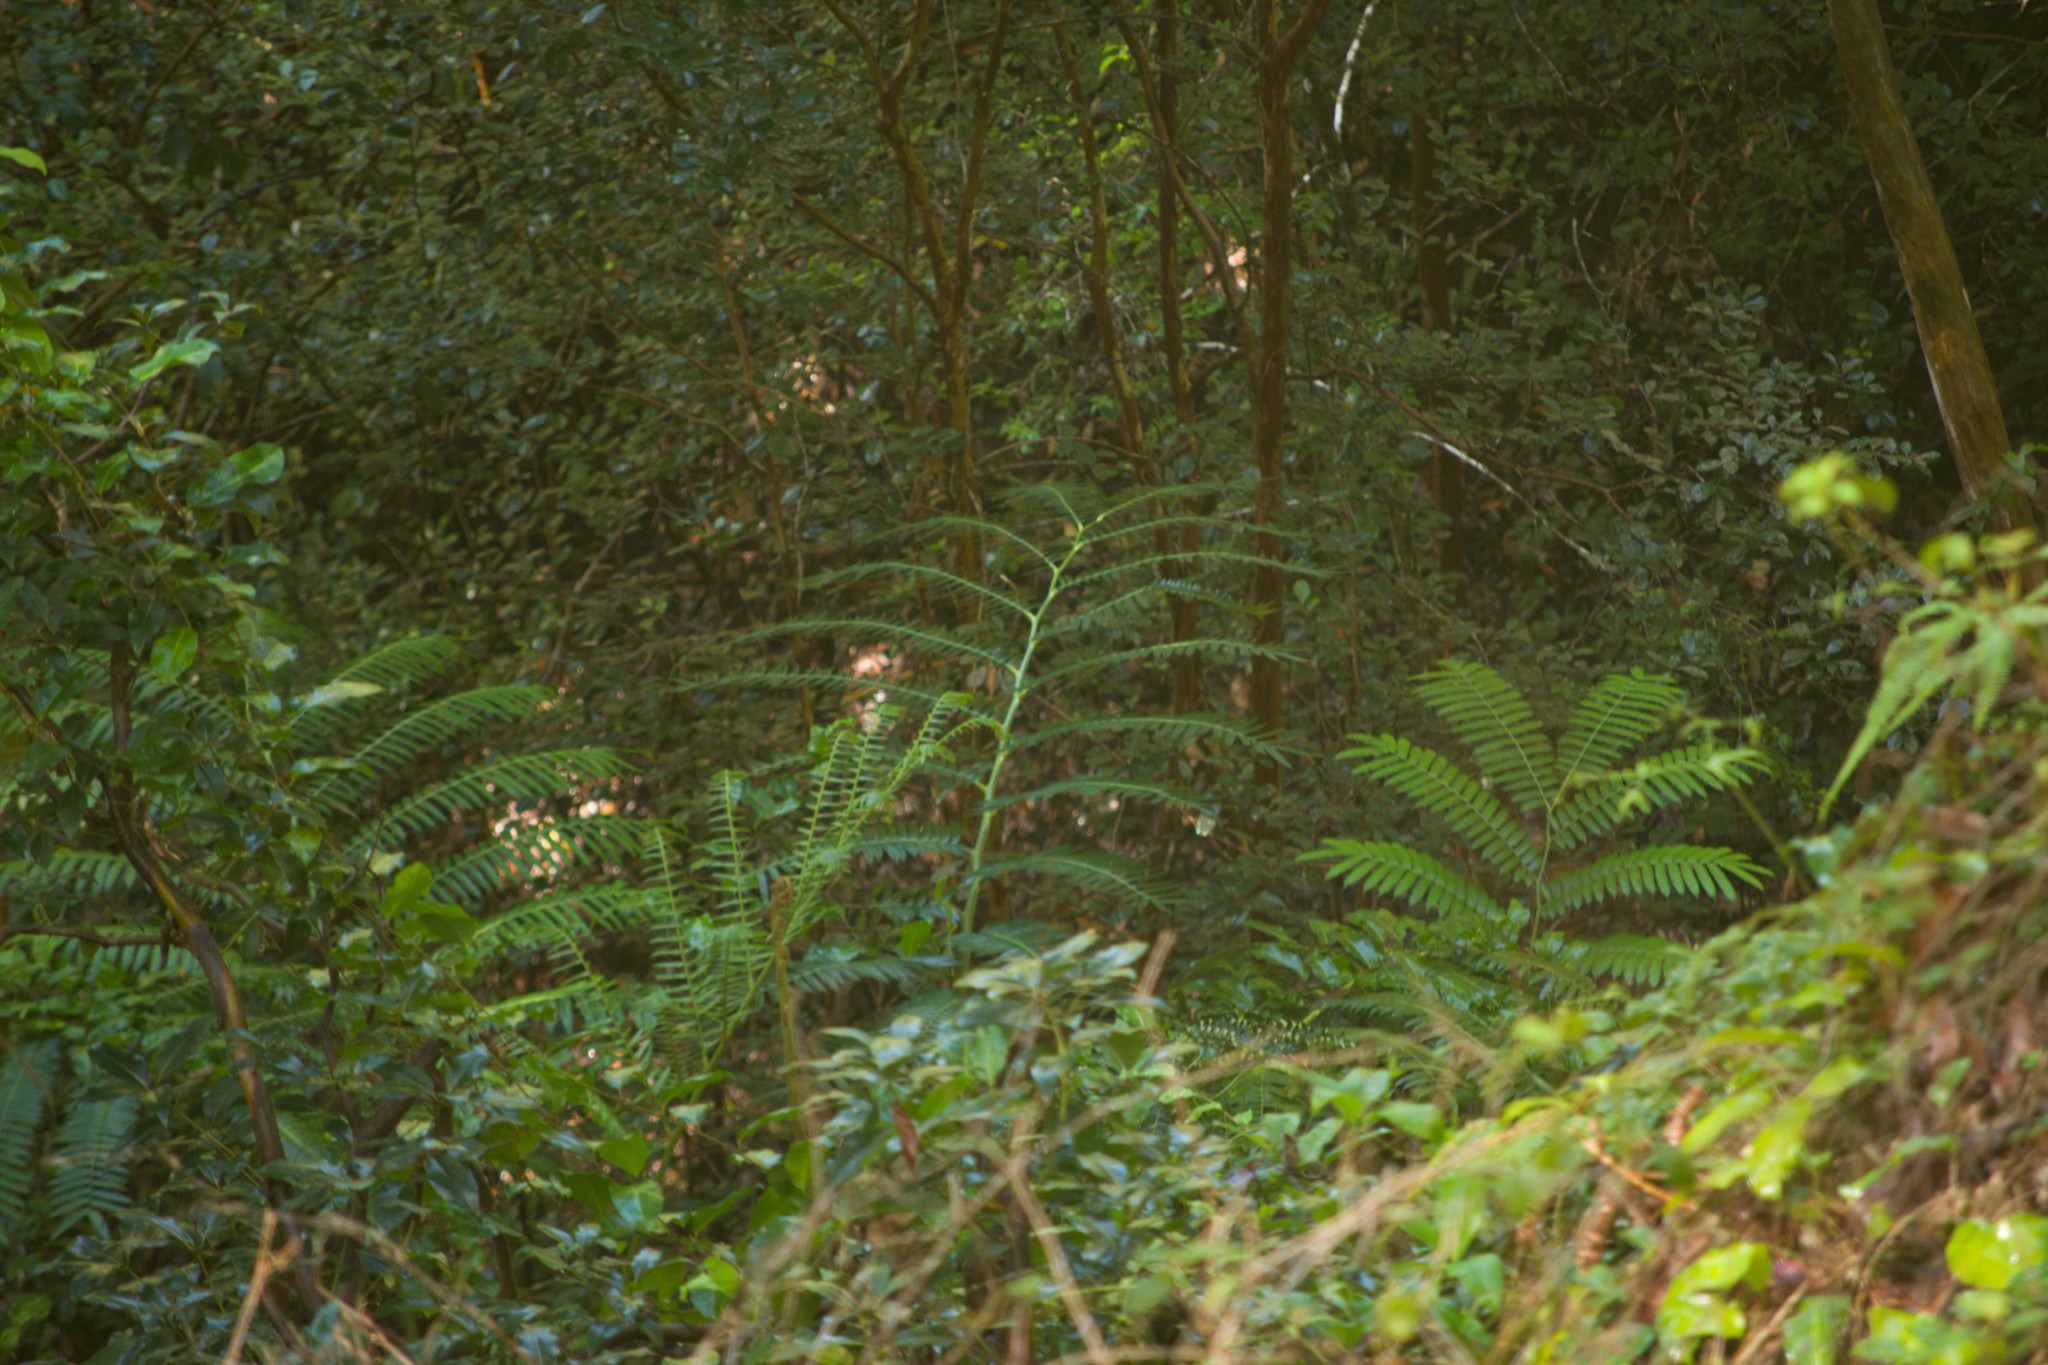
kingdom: Plantae
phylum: Tracheophyta
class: Polypodiopsida
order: Marattiales
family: Marattiaceae
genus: Angiopteris
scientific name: Angiopteris evecta
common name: Mule's-foot fern
